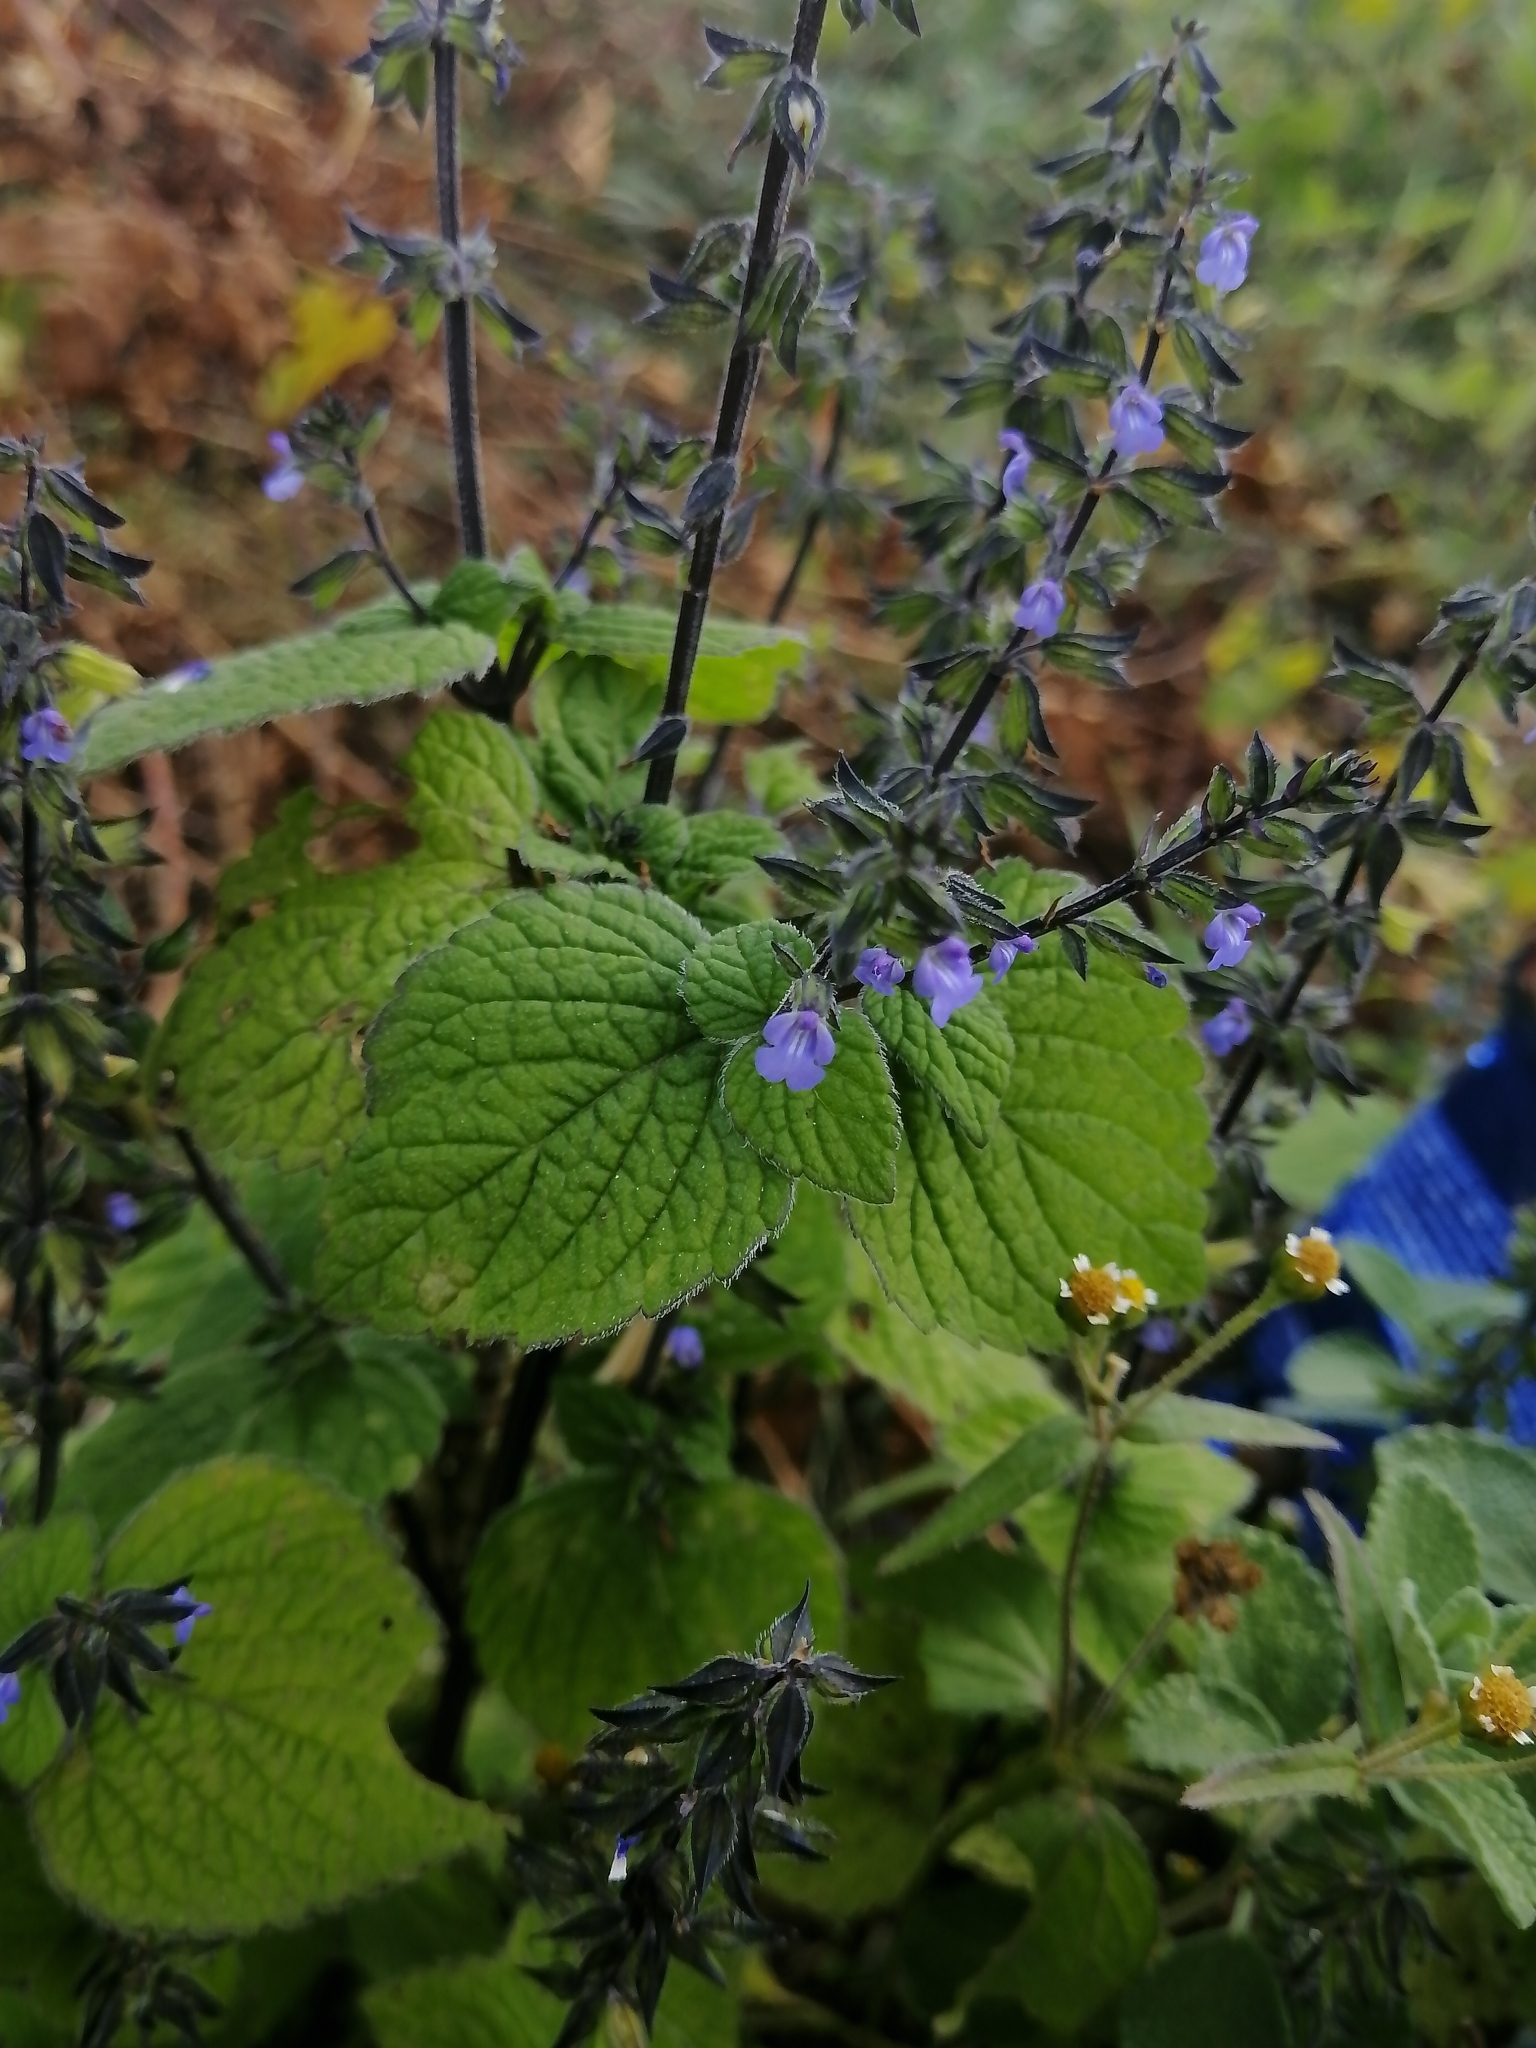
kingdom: Plantae
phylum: Tracheophyta
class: Magnoliopsida
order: Lamiales
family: Lamiaceae
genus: Salvia
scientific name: Salvia tiliifolia
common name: Lindenleaf sage
